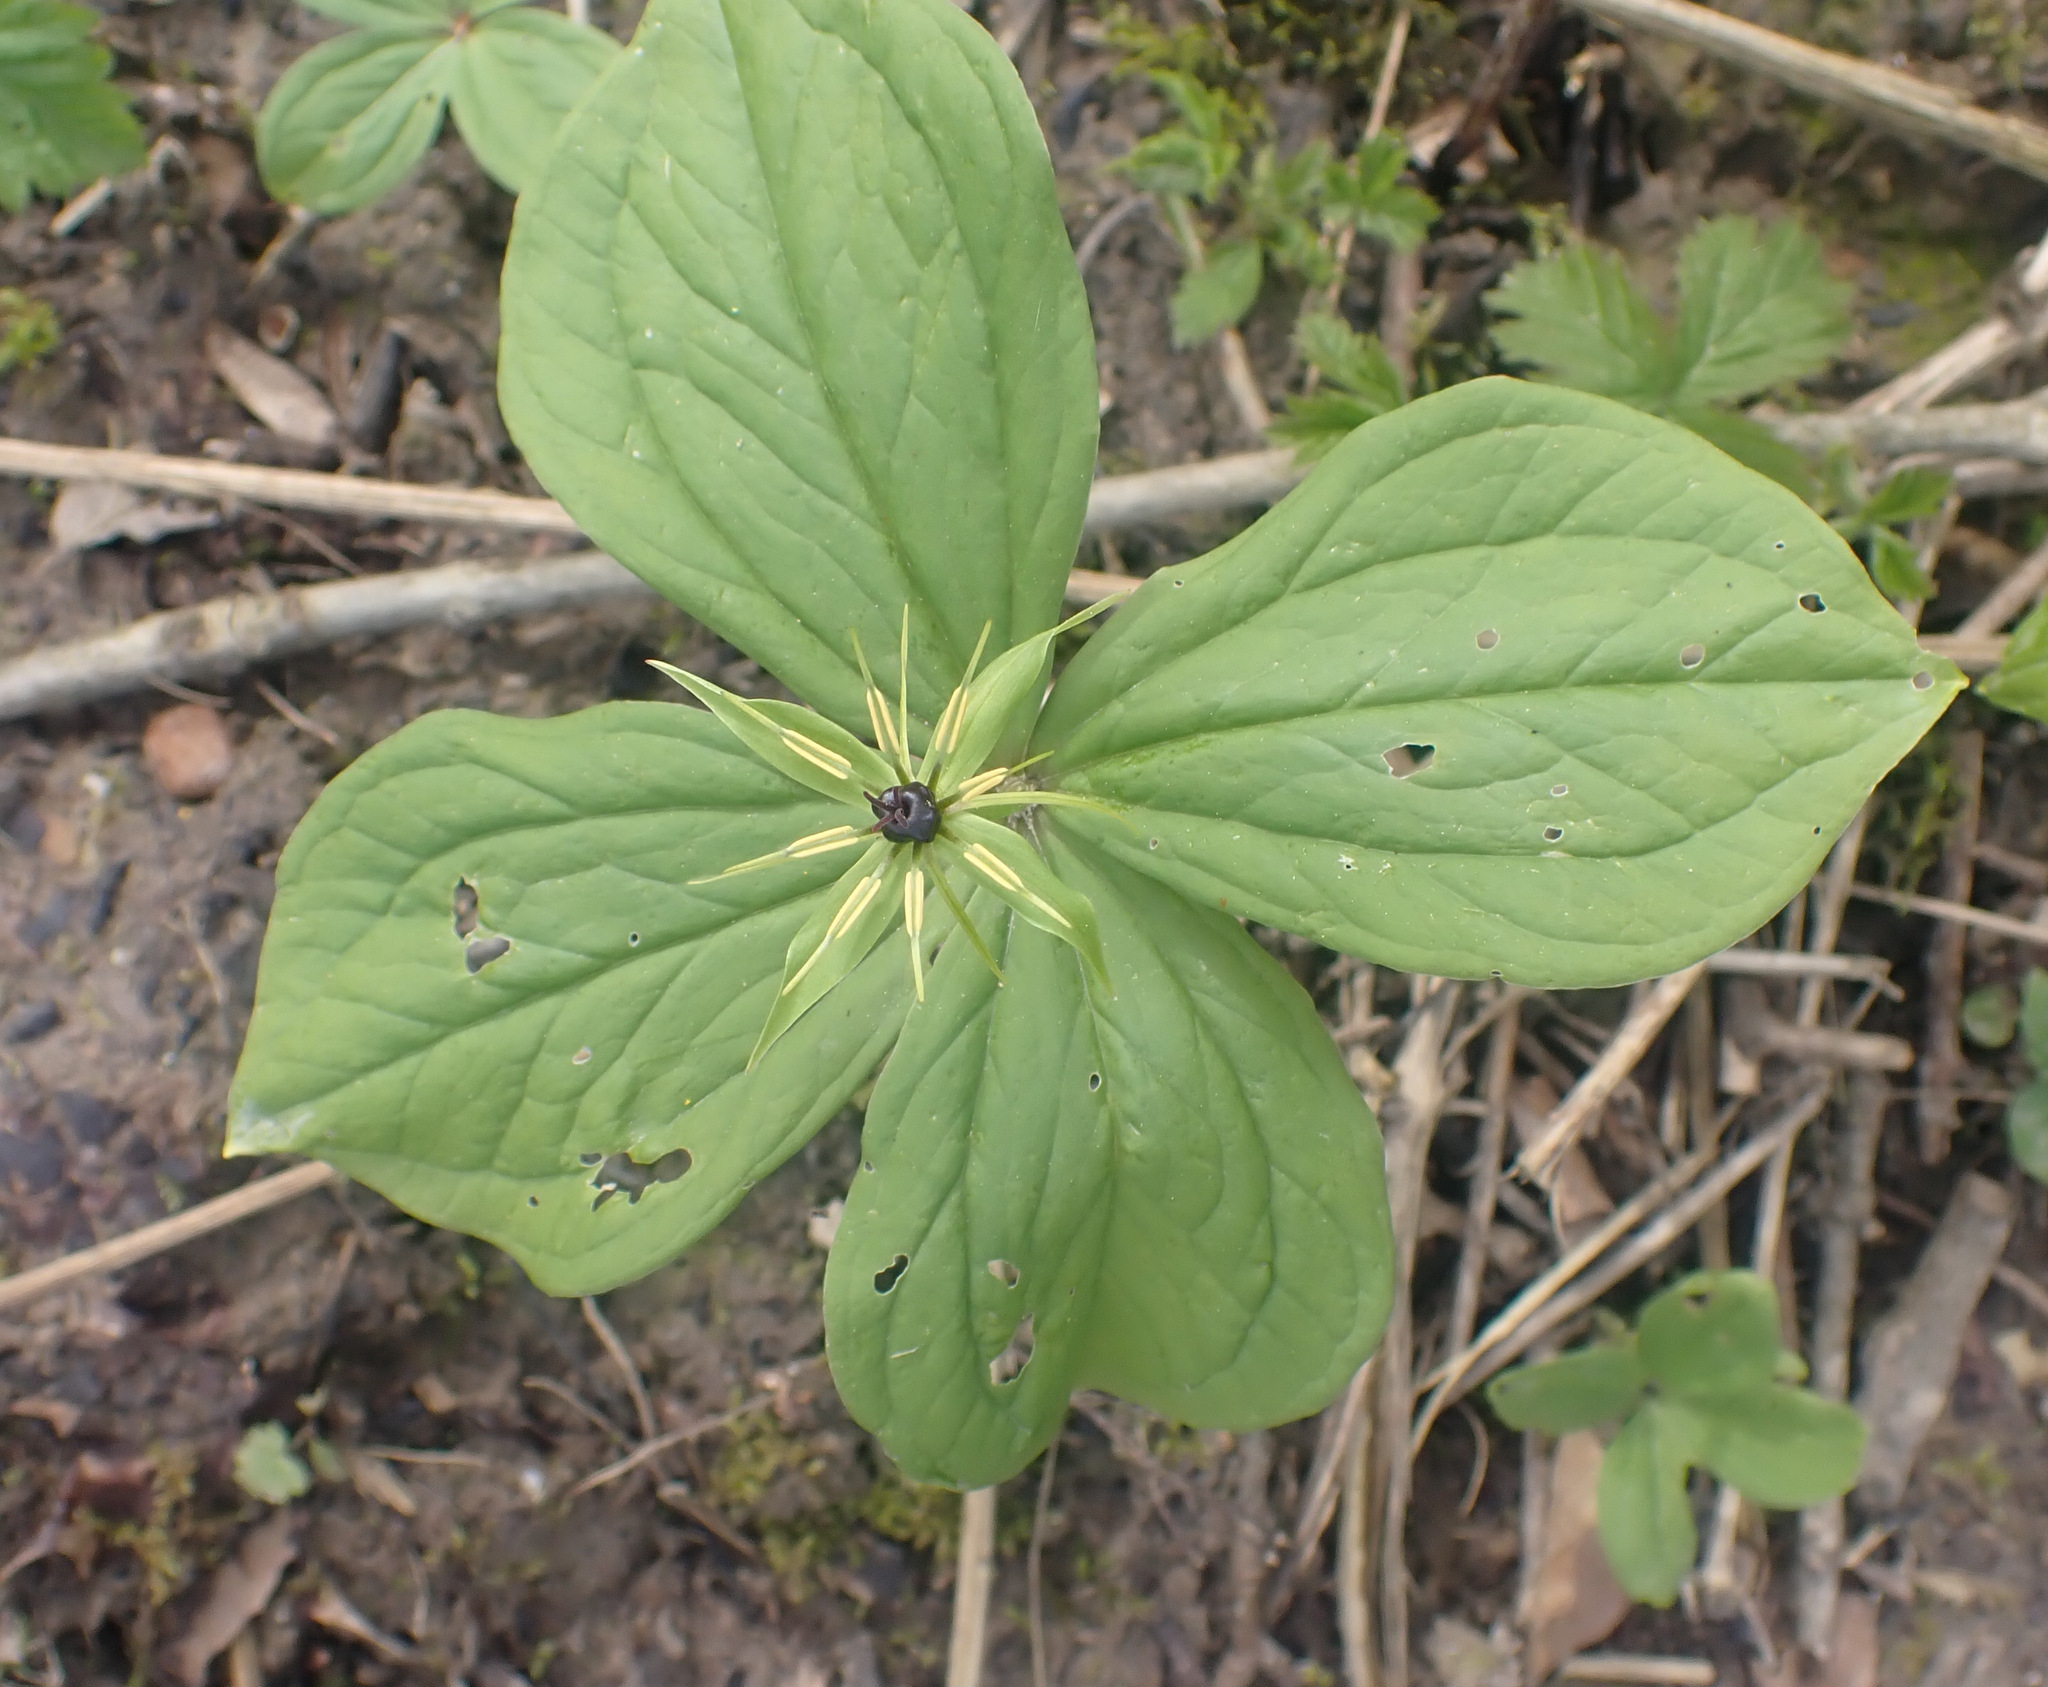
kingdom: Plantae
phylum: Tracheophyta
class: Liliopsida
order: Liliales
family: Melanthiaceae
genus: Paris
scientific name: Paris quadrifolia
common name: Herb-paris
